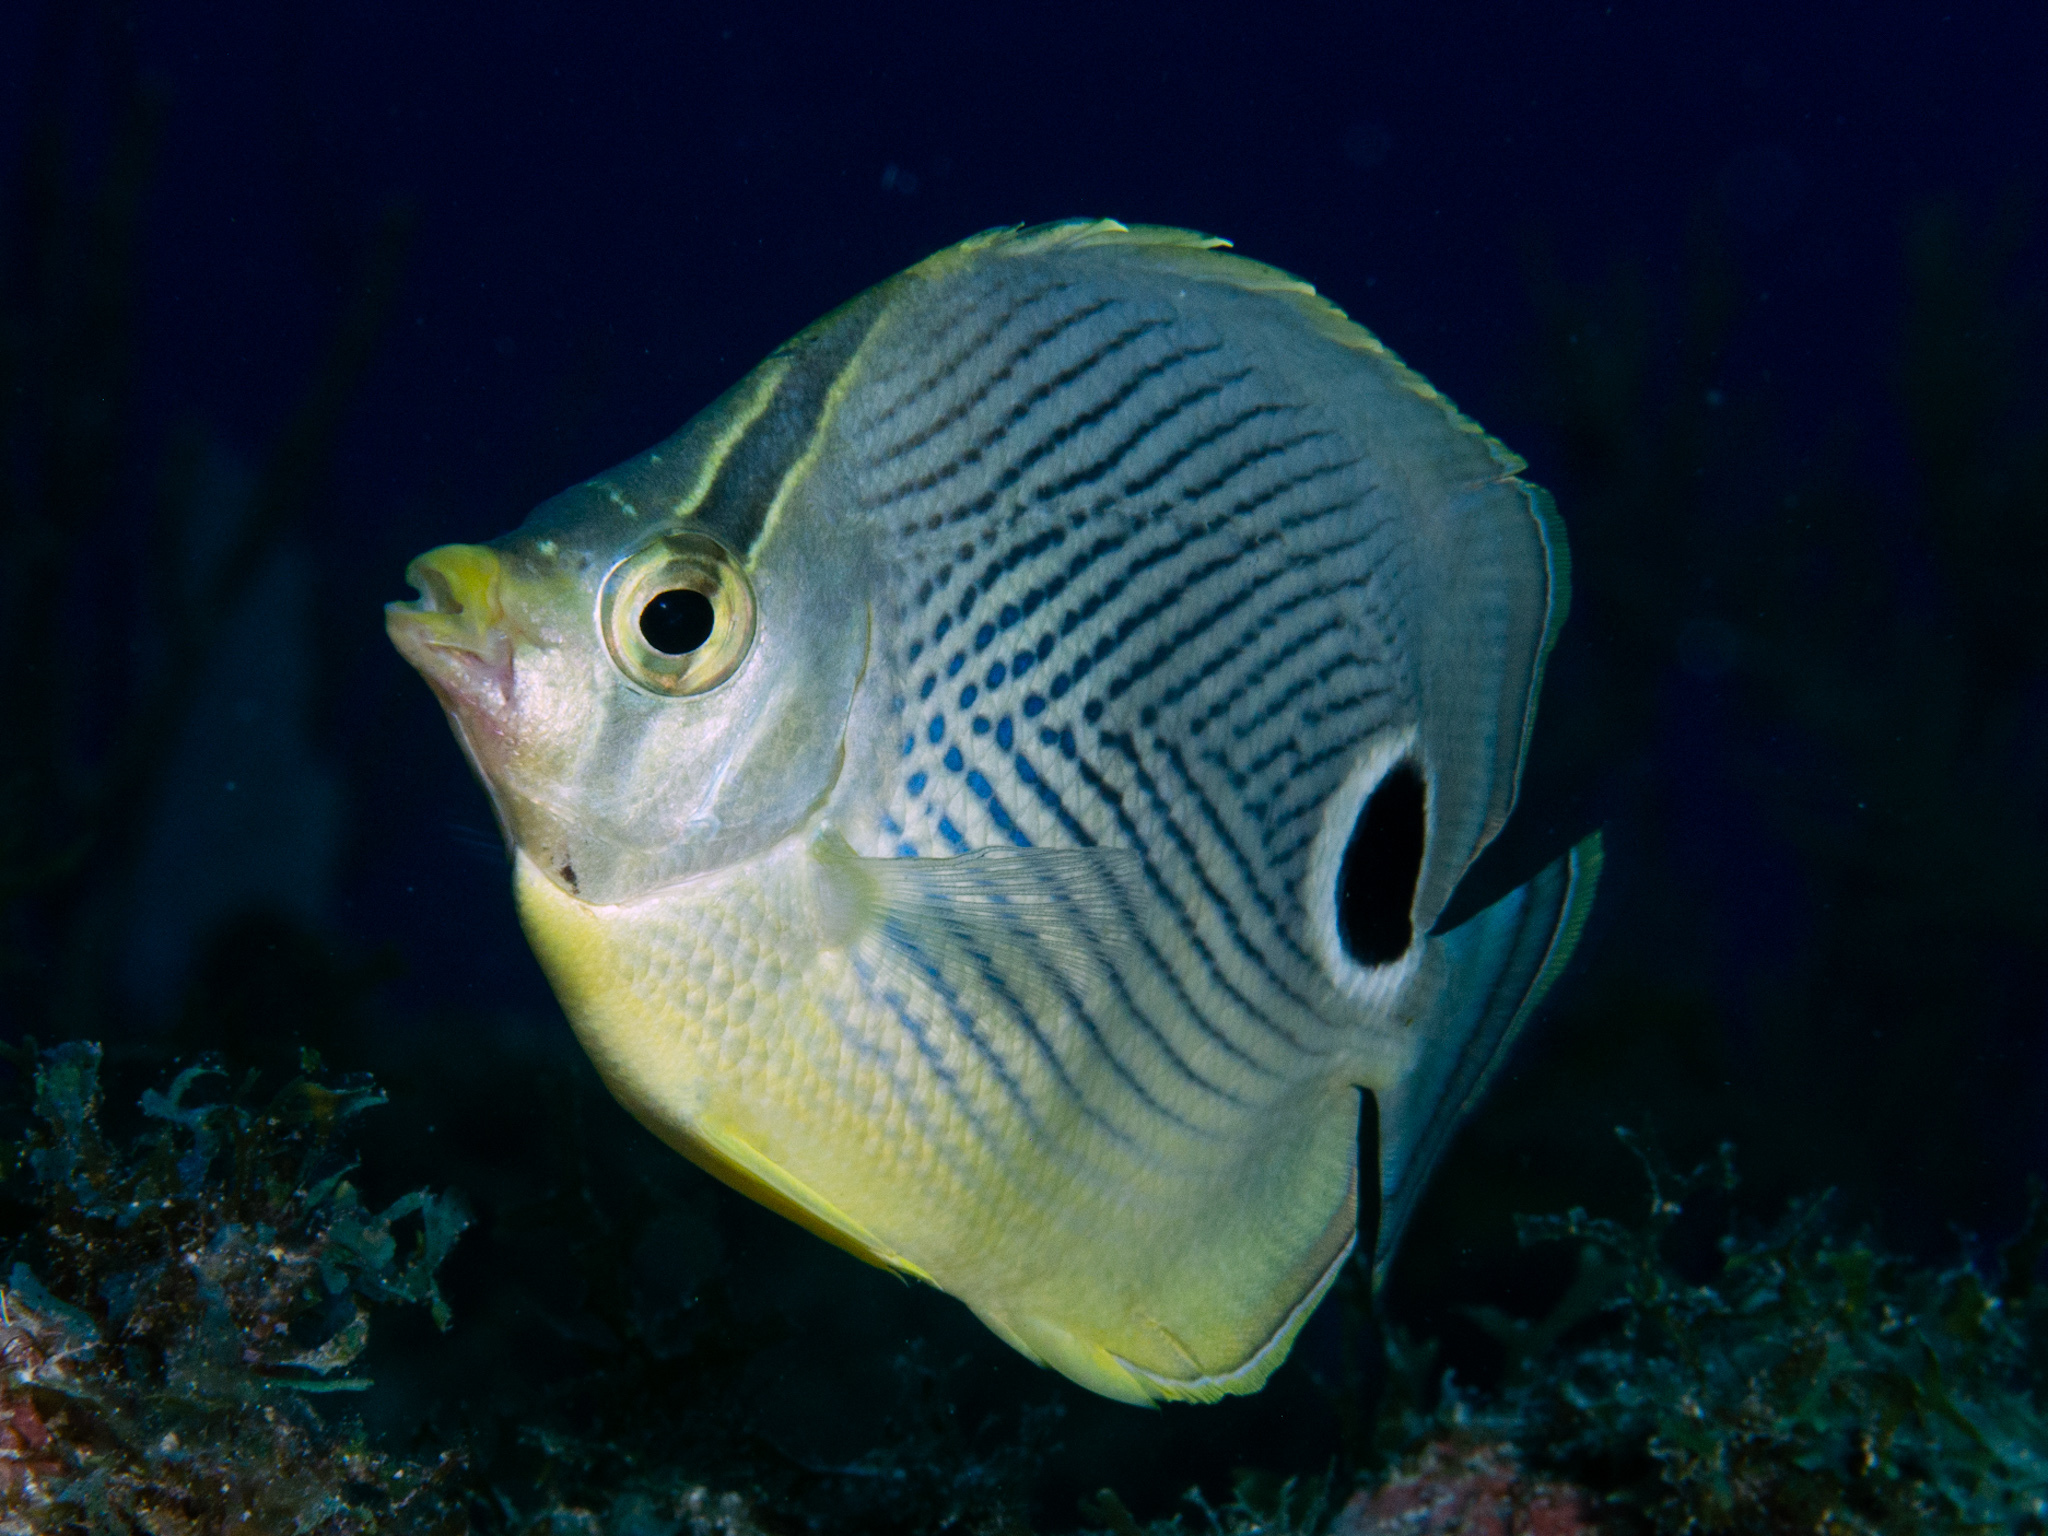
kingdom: Animalia
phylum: Chordata
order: Perciformes
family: Chaetodontidae
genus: Chaetodon
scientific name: Chaetodon capistratus
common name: Kete
